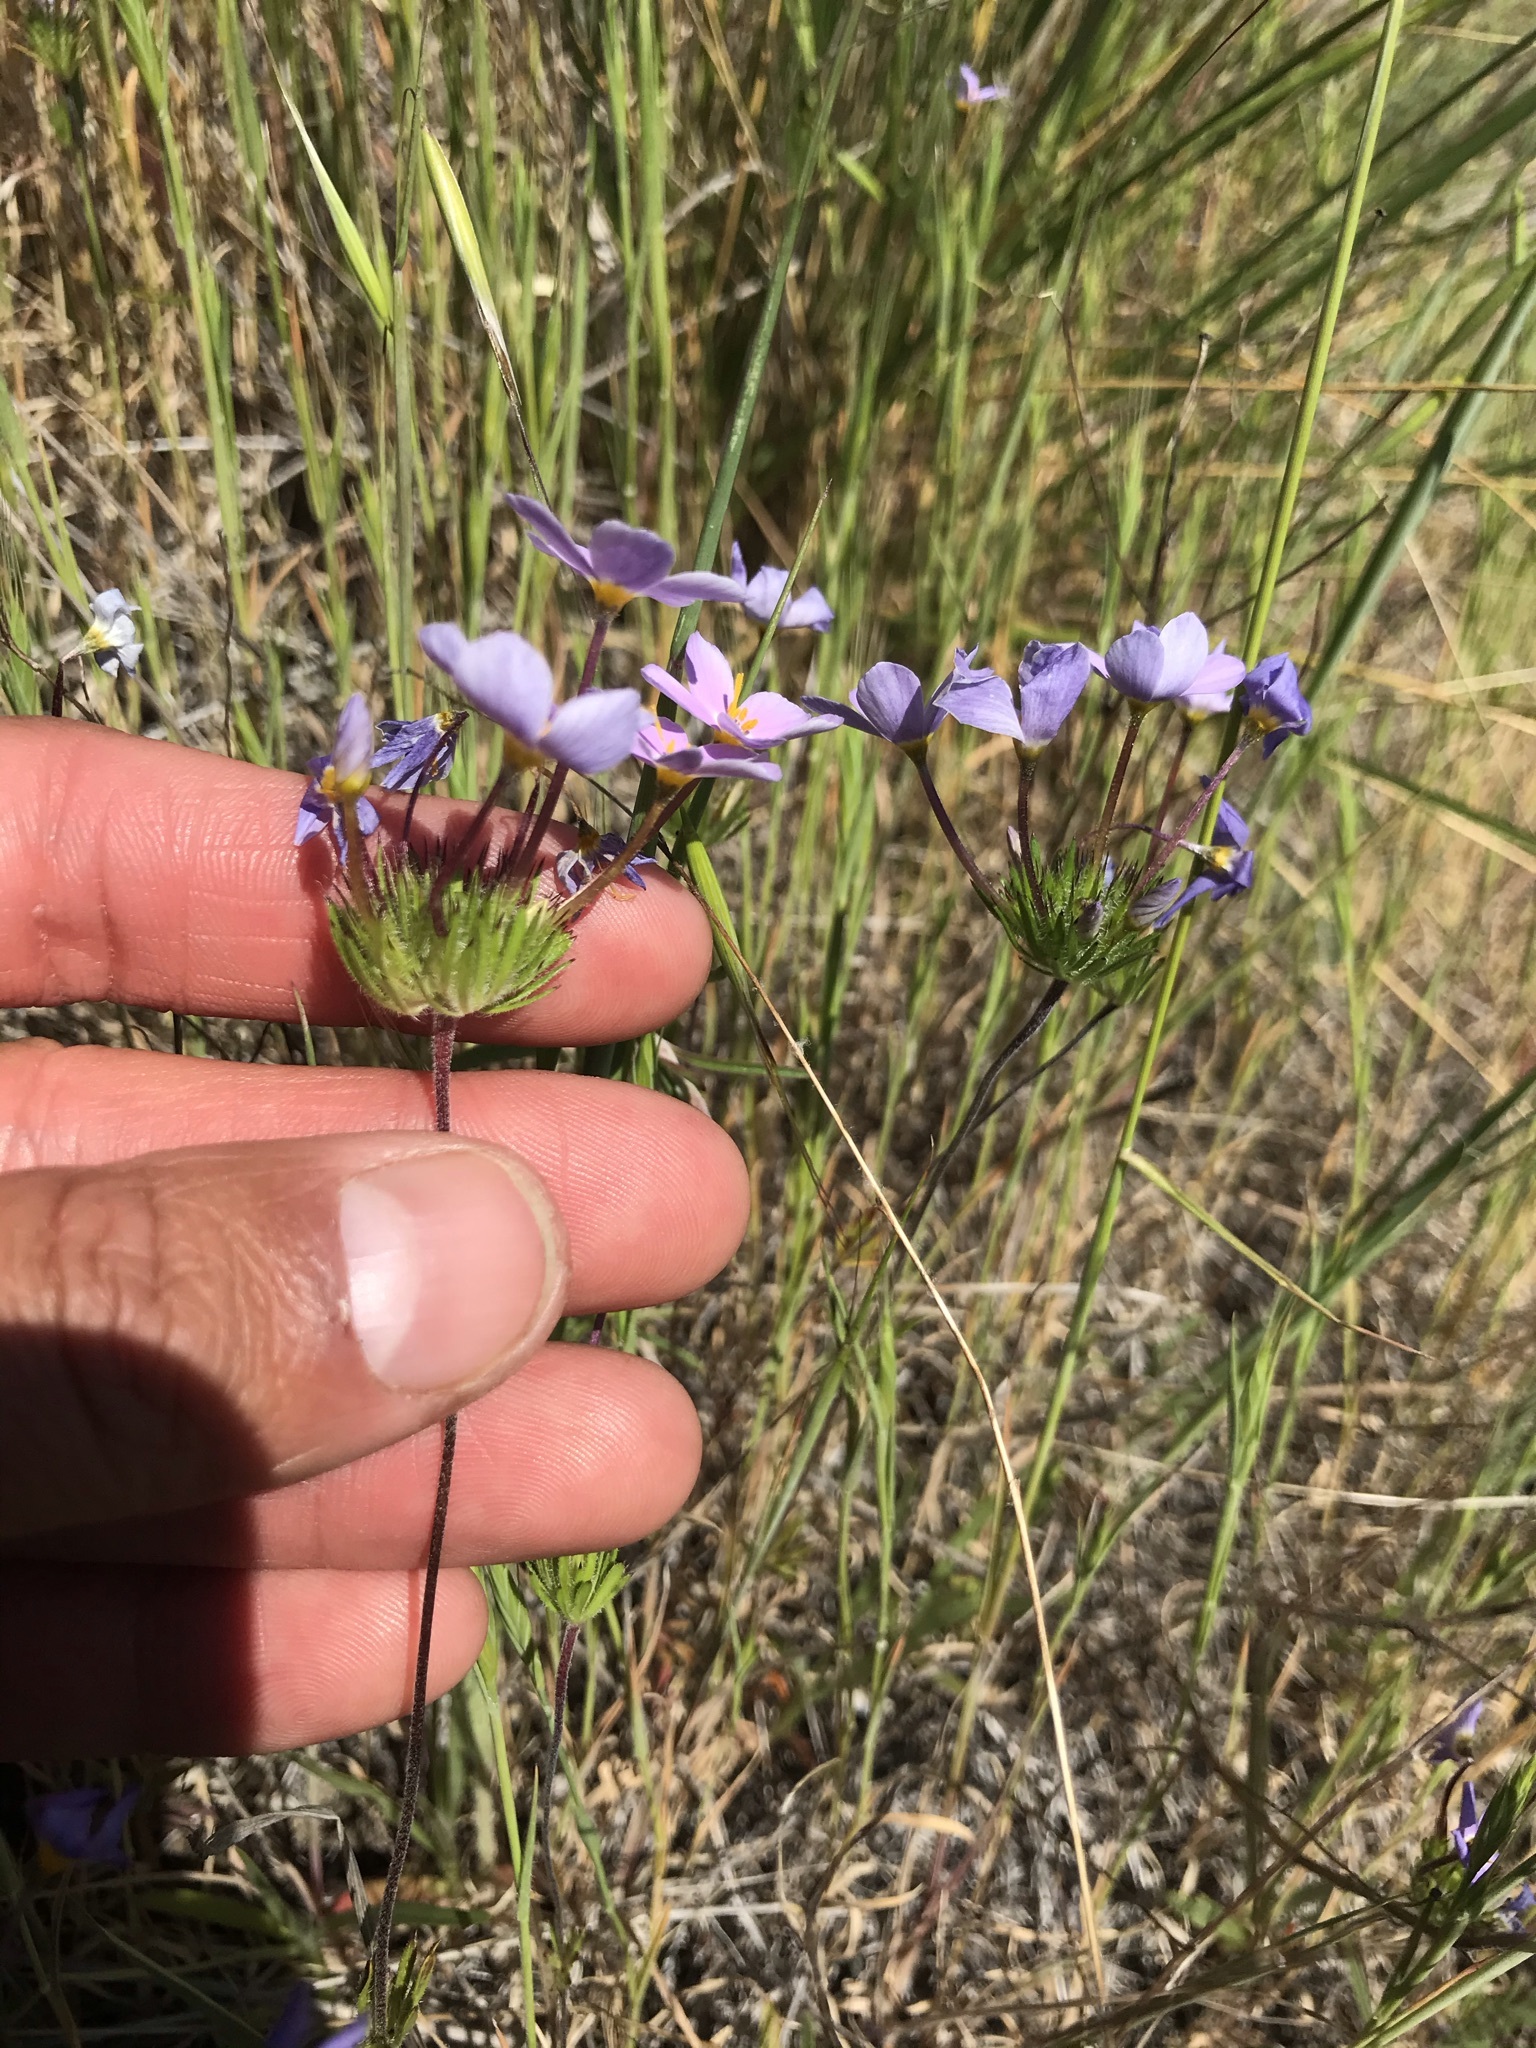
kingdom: Plantae
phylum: Tracheophyta
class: Magnoliopsida
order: Ericales
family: Polemoniaceae
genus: Leptosiphon
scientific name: Leptosiphon androsaceus
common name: False babystars
